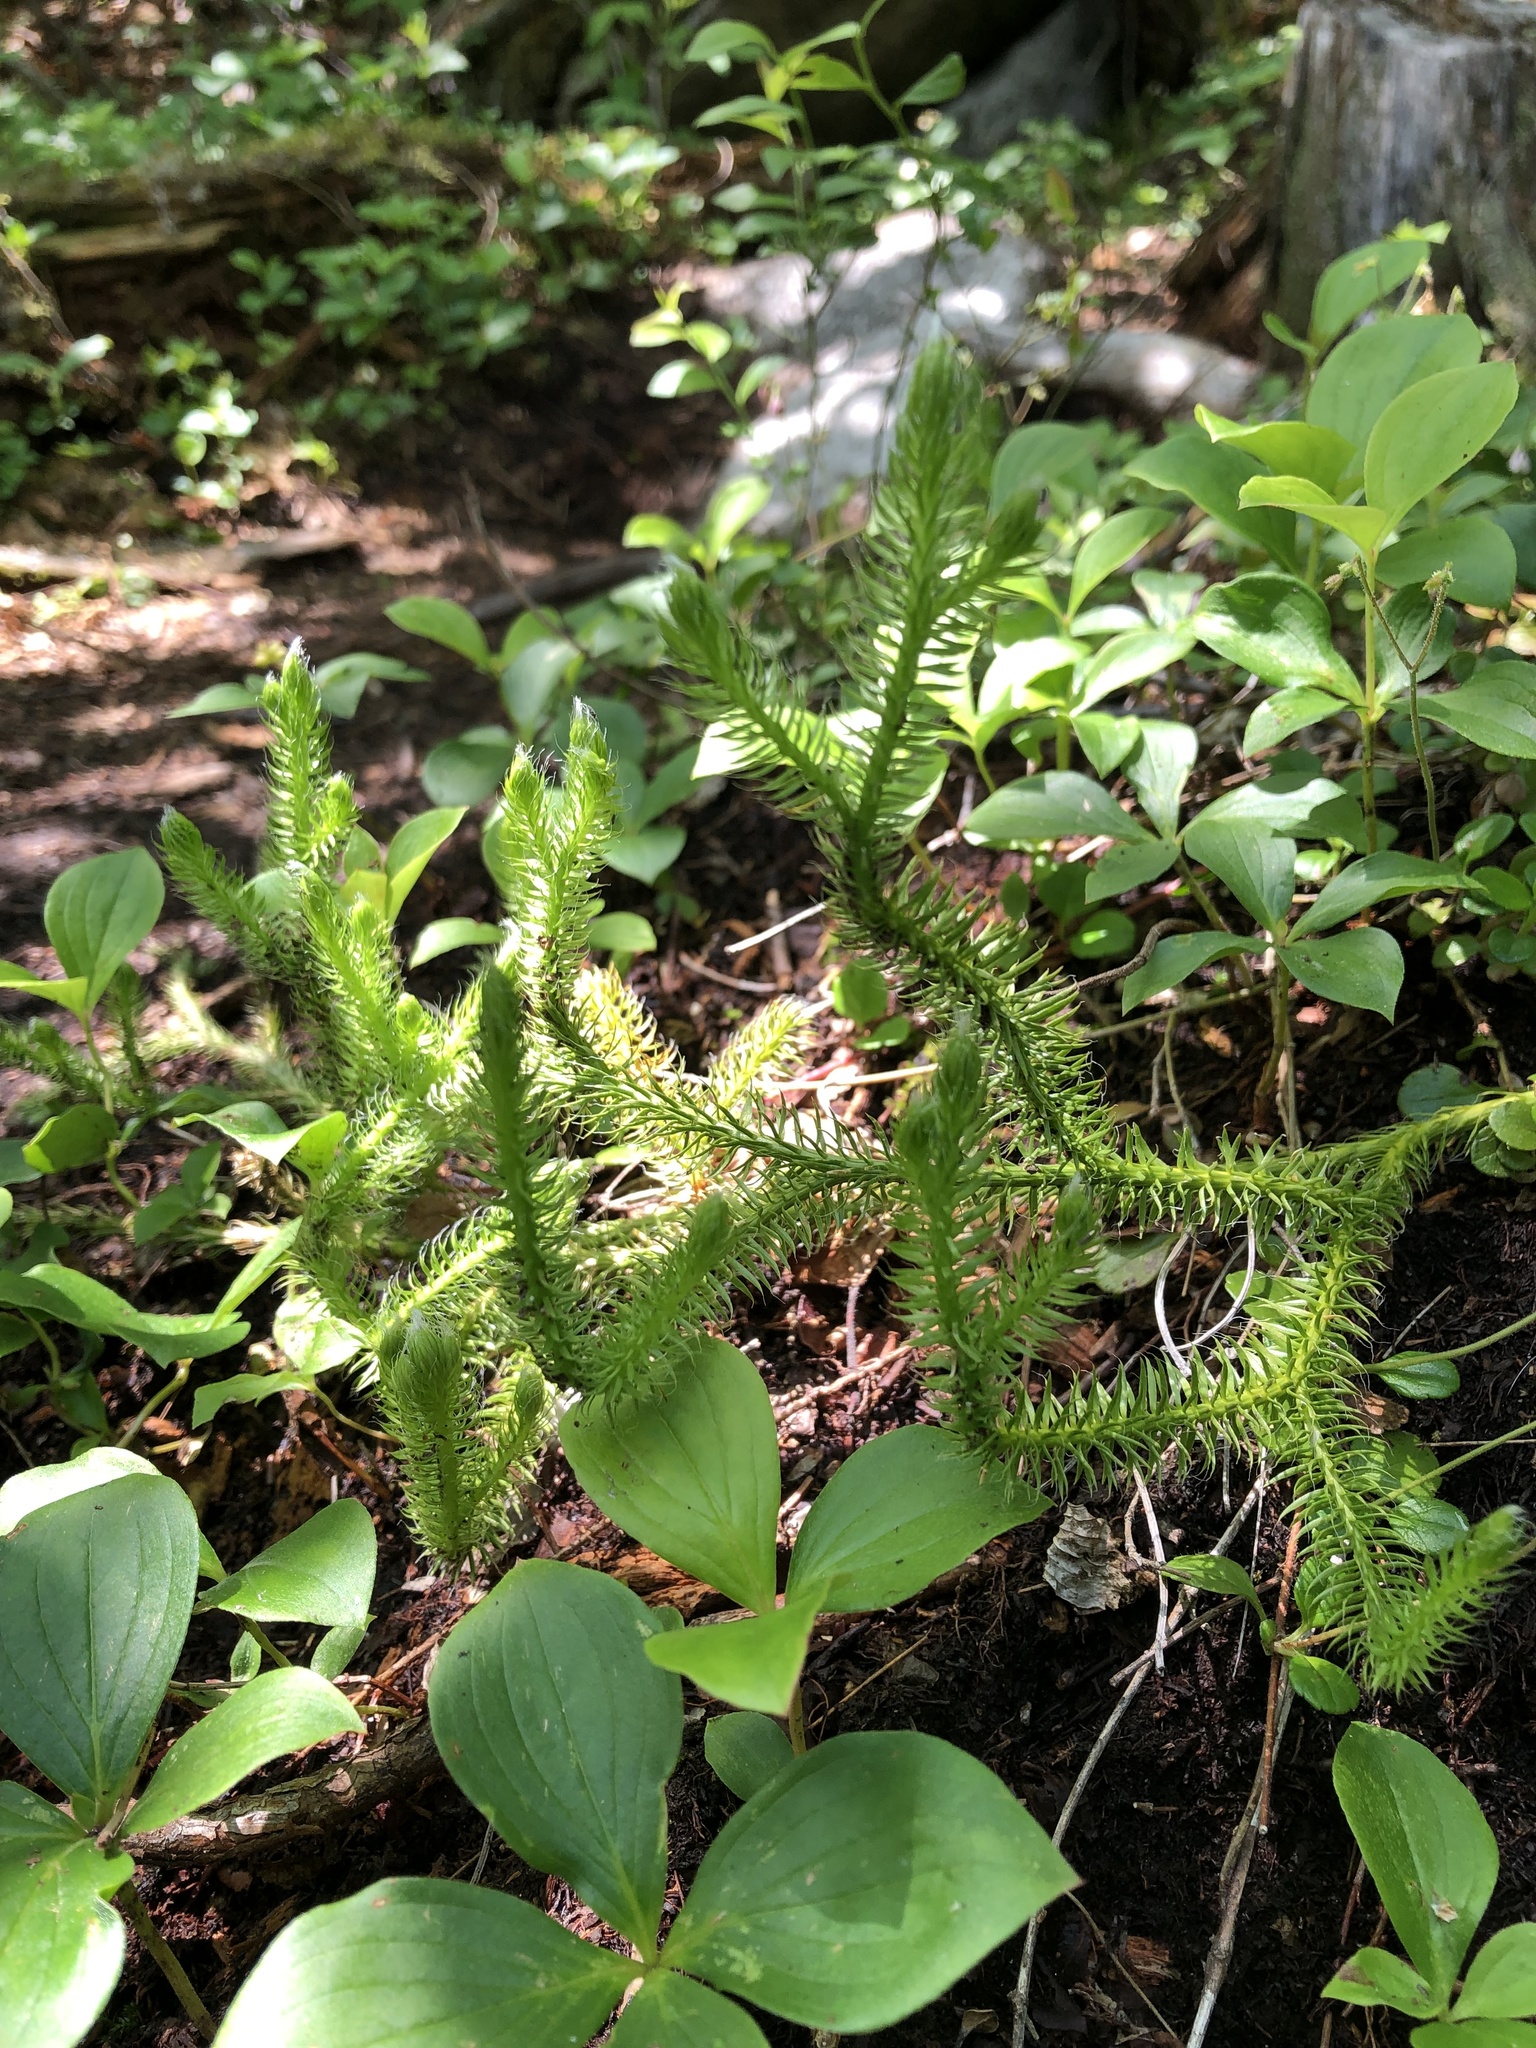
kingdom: Plantae
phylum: Tracheophyta
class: Lycopodiopsida
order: Lycopodiales
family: Lycopodiaceae
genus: Lycopodium
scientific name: Lycopodium clavatum
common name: Stag's-horn clubmoss
